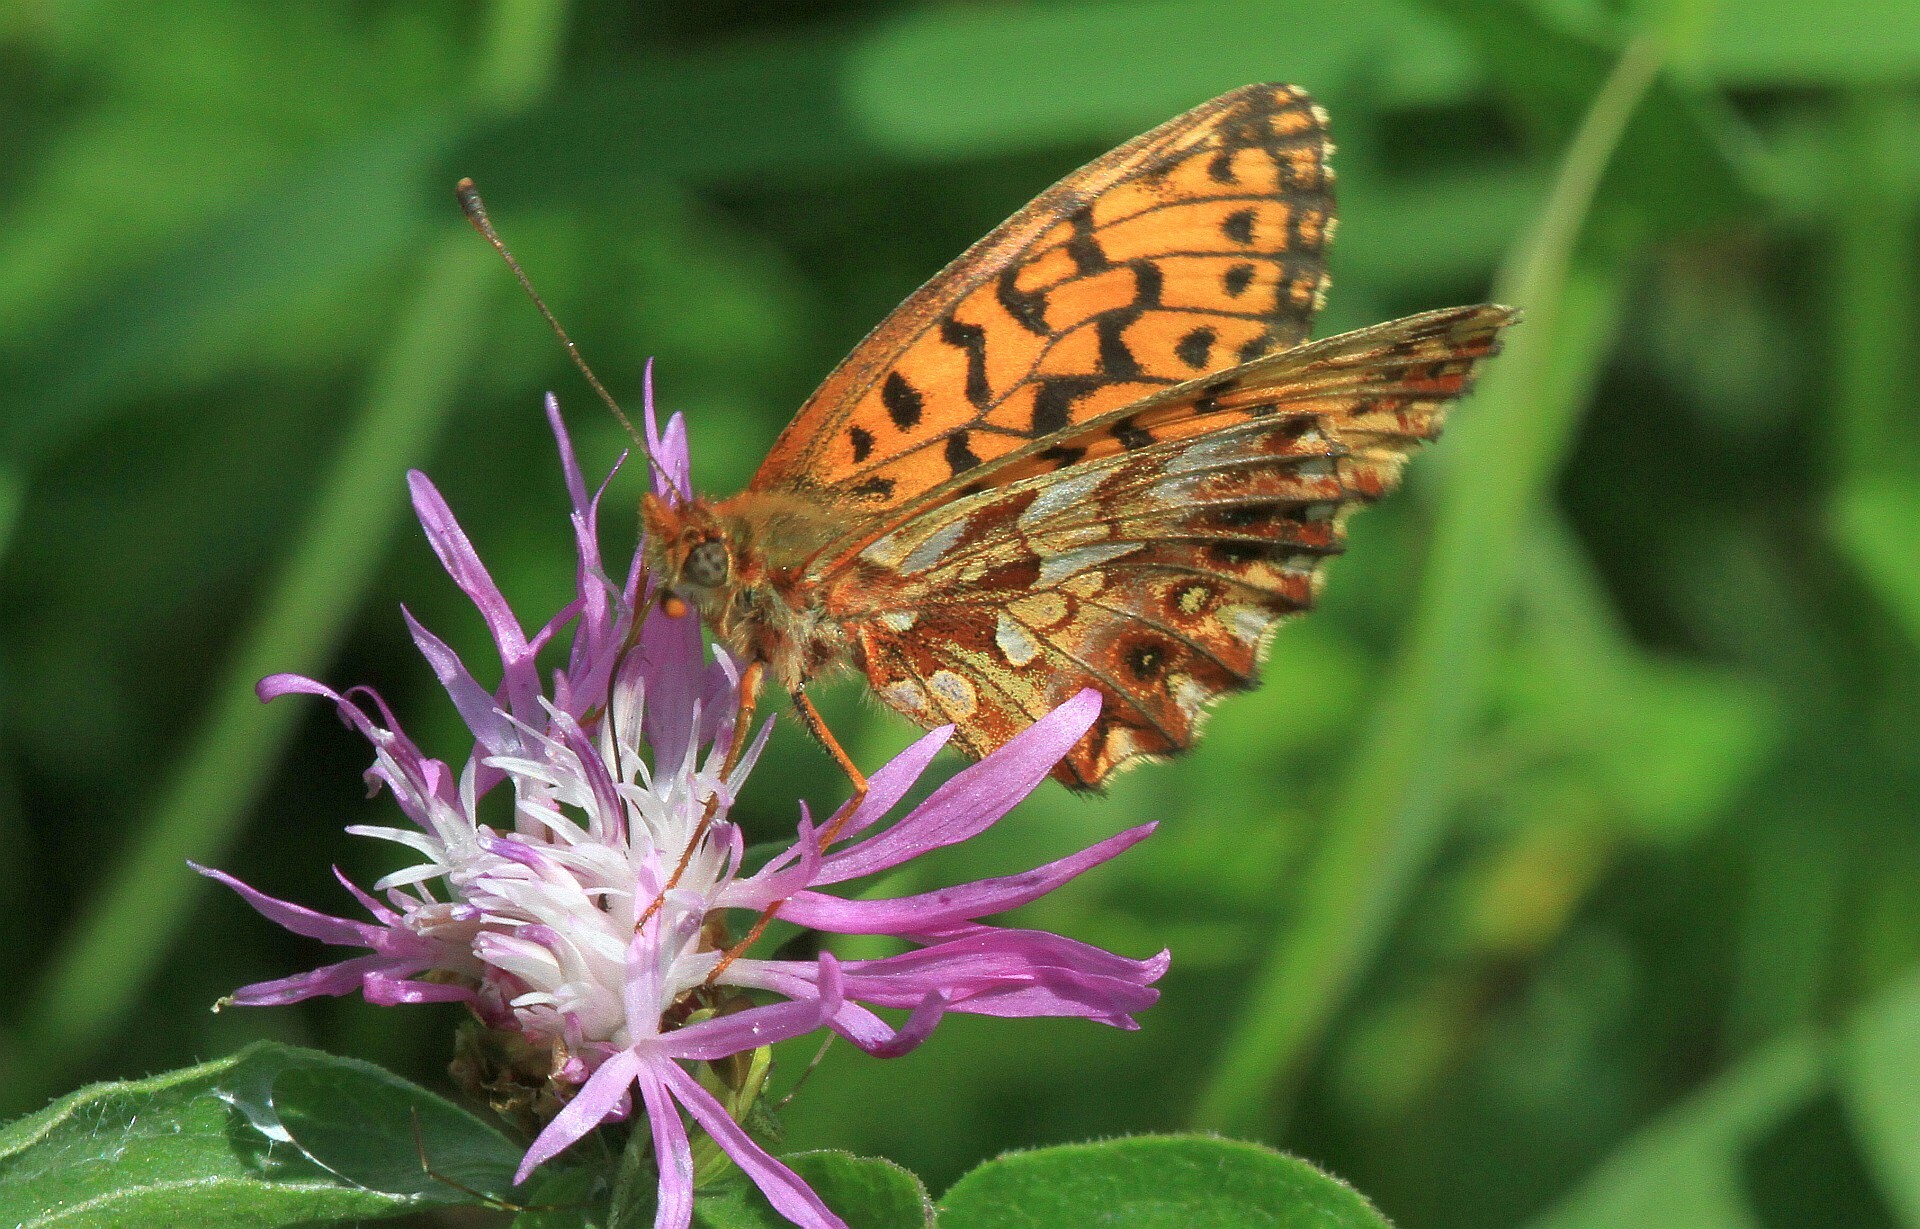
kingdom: Animalia
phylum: Arthropoda
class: Insecta
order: Lepidoptera
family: Nymphalidae
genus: Boloria
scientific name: Boloria dia
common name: Weaver's fritillary
